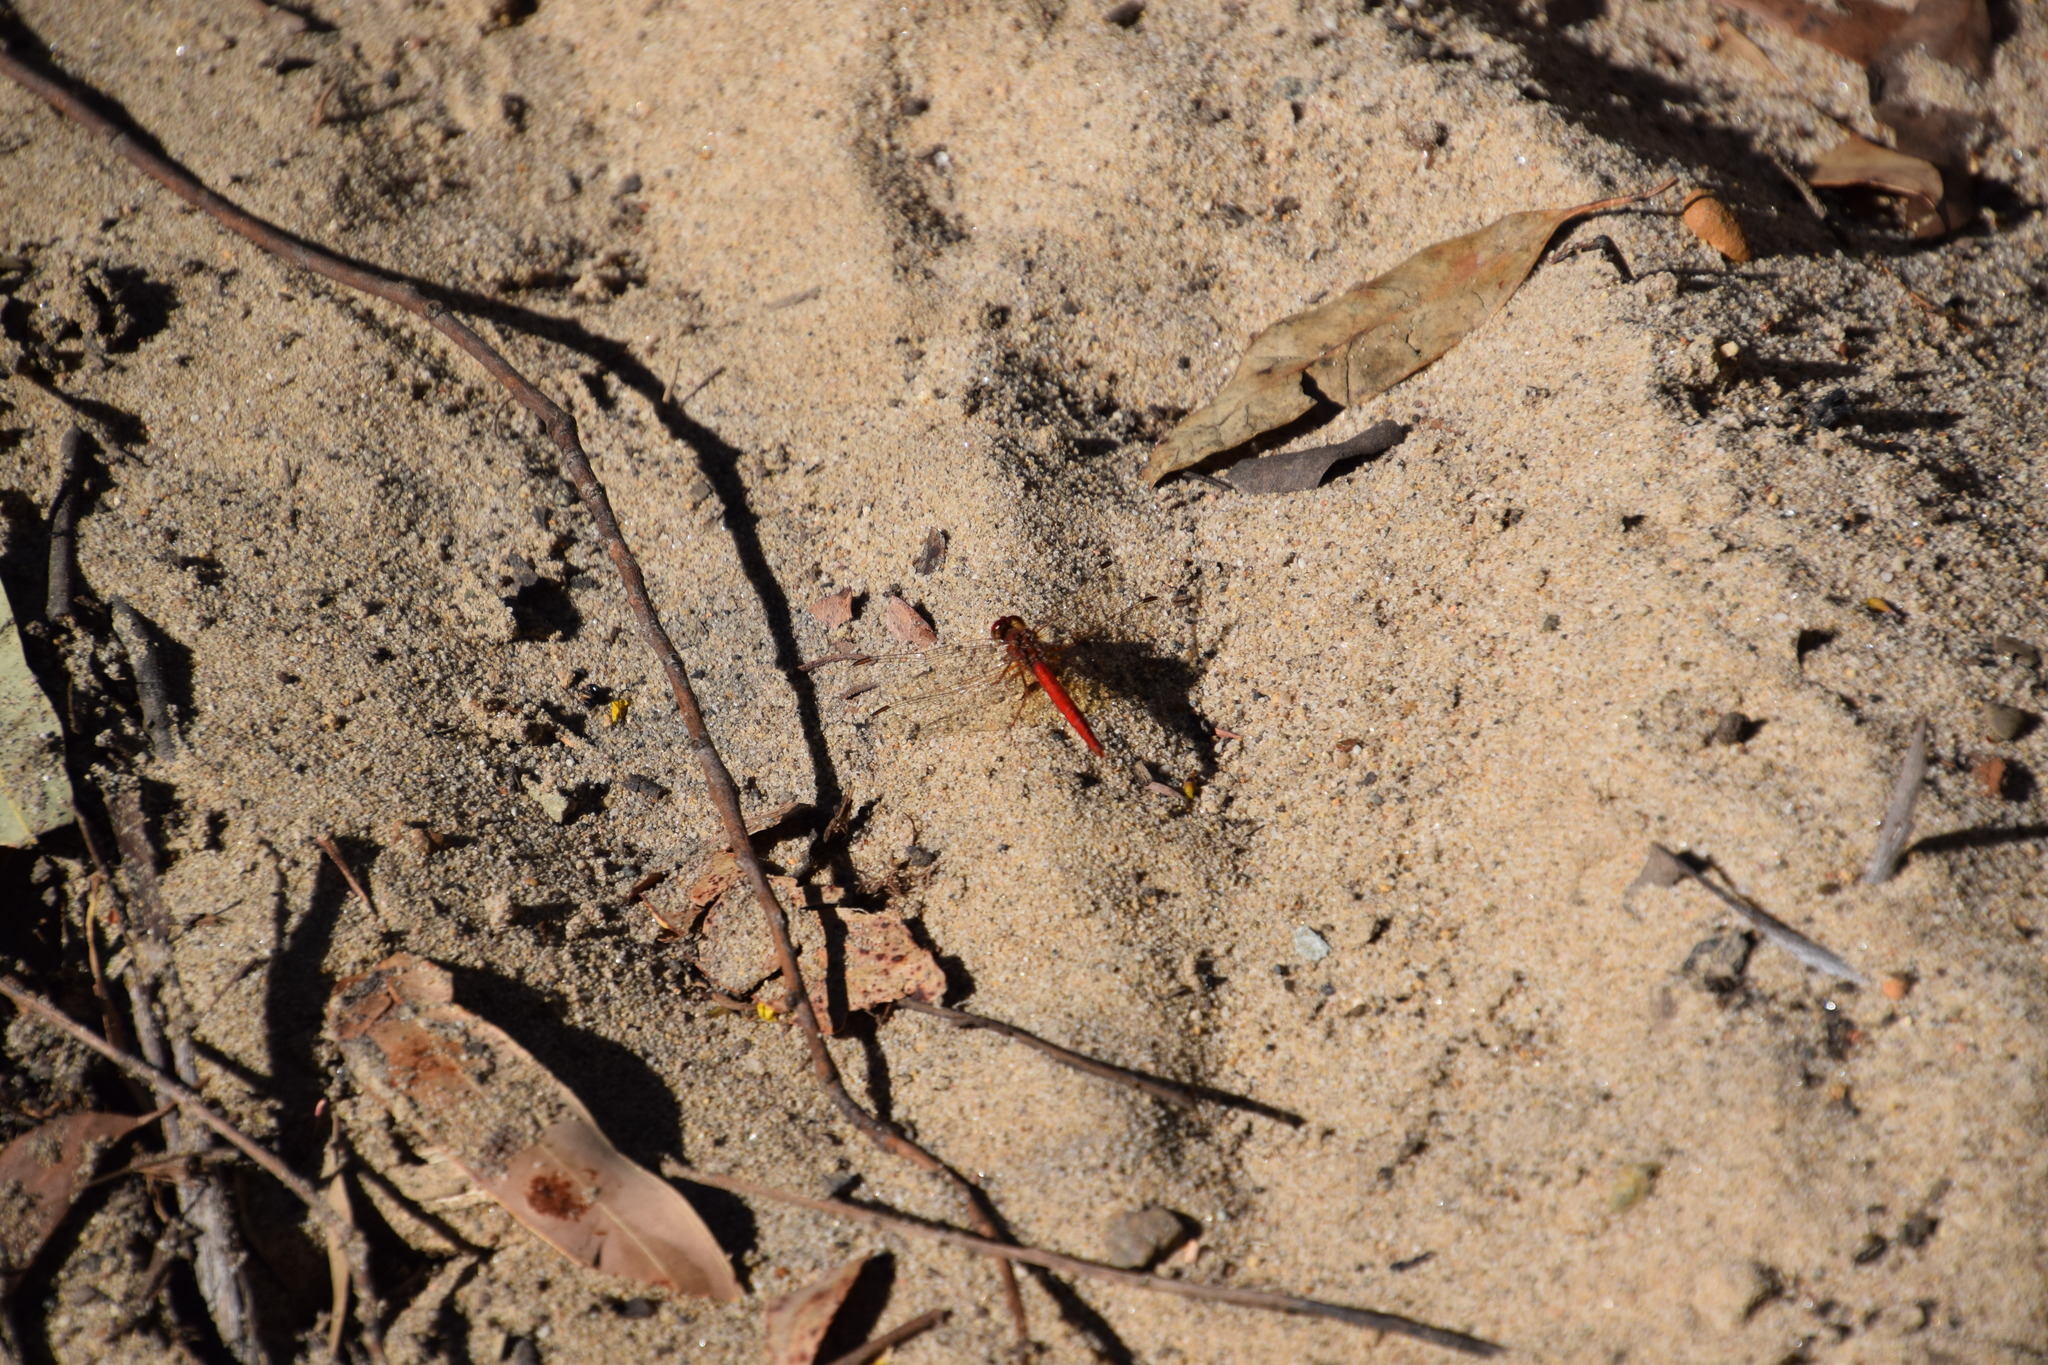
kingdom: Animalia
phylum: Arthropoda
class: Insecta
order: Odonata
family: Libellulidae
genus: Diplacodes
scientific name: Diplacodes haematodes
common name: Scarlet percher
